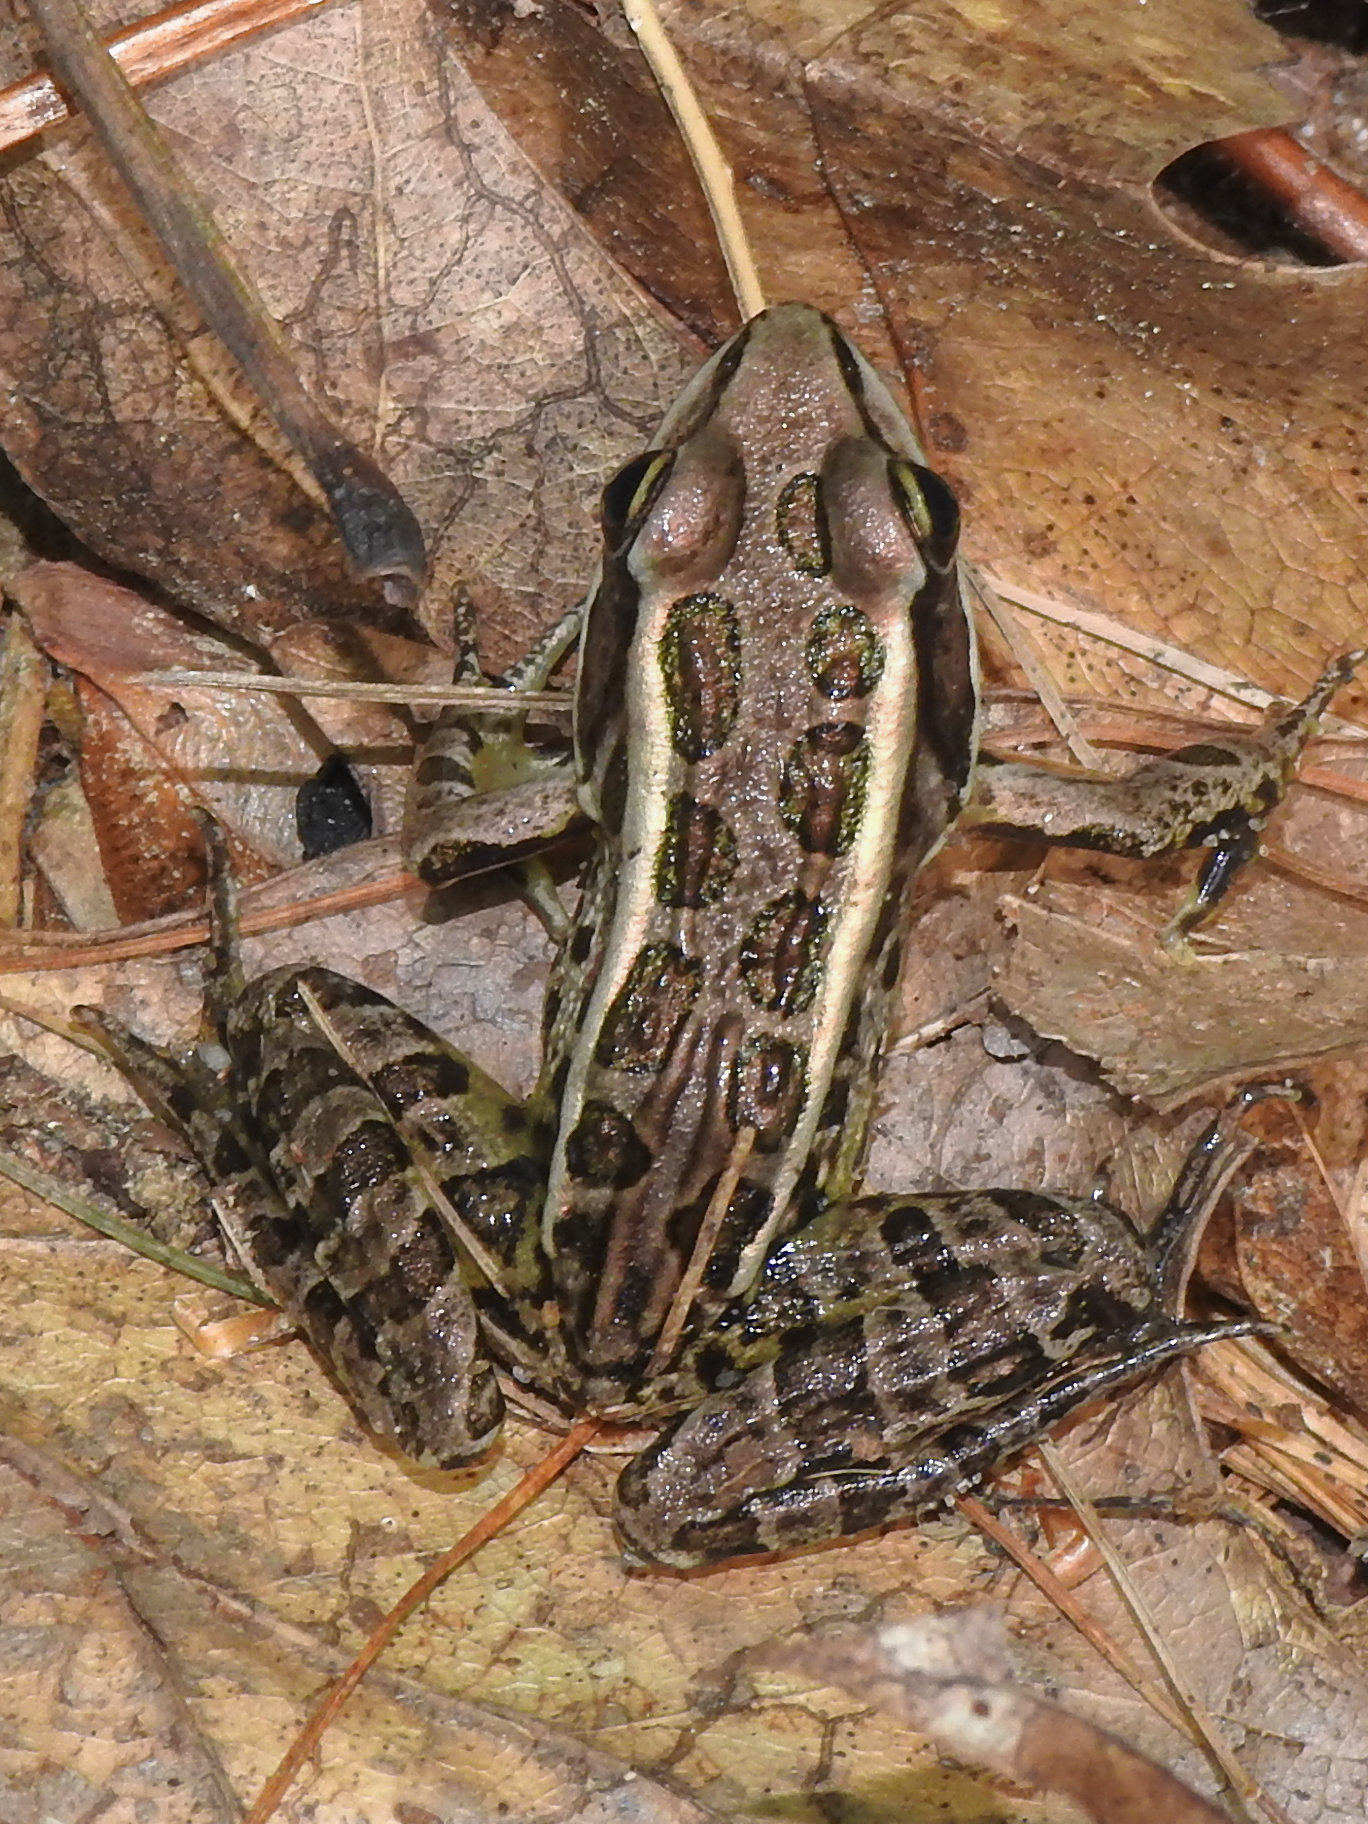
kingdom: Animalia
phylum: Chordata
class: Amphibia
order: Anura
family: Ranidae
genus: Lithobates
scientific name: Lithobates palustris
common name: Pickerel frog
